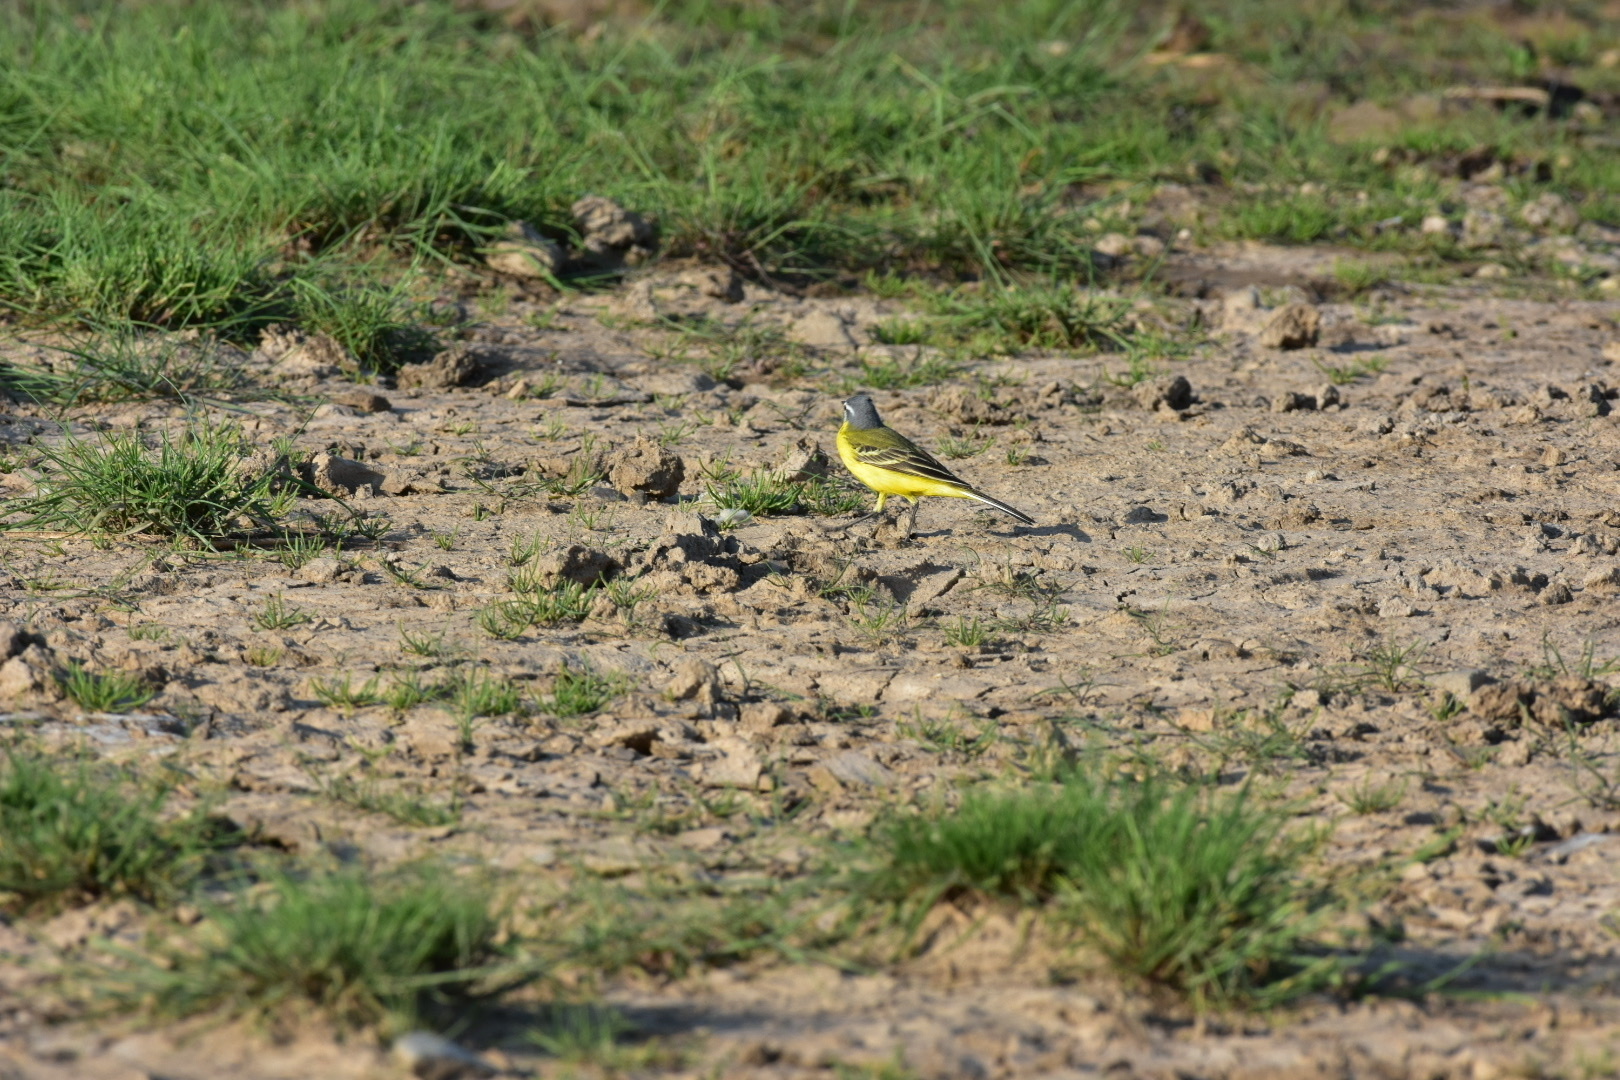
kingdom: Animalia
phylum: Chordata
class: Aves
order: Passeriformes
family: Motacillidae
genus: Motacilla
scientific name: Motacilla flava
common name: Western yellow wagtail
